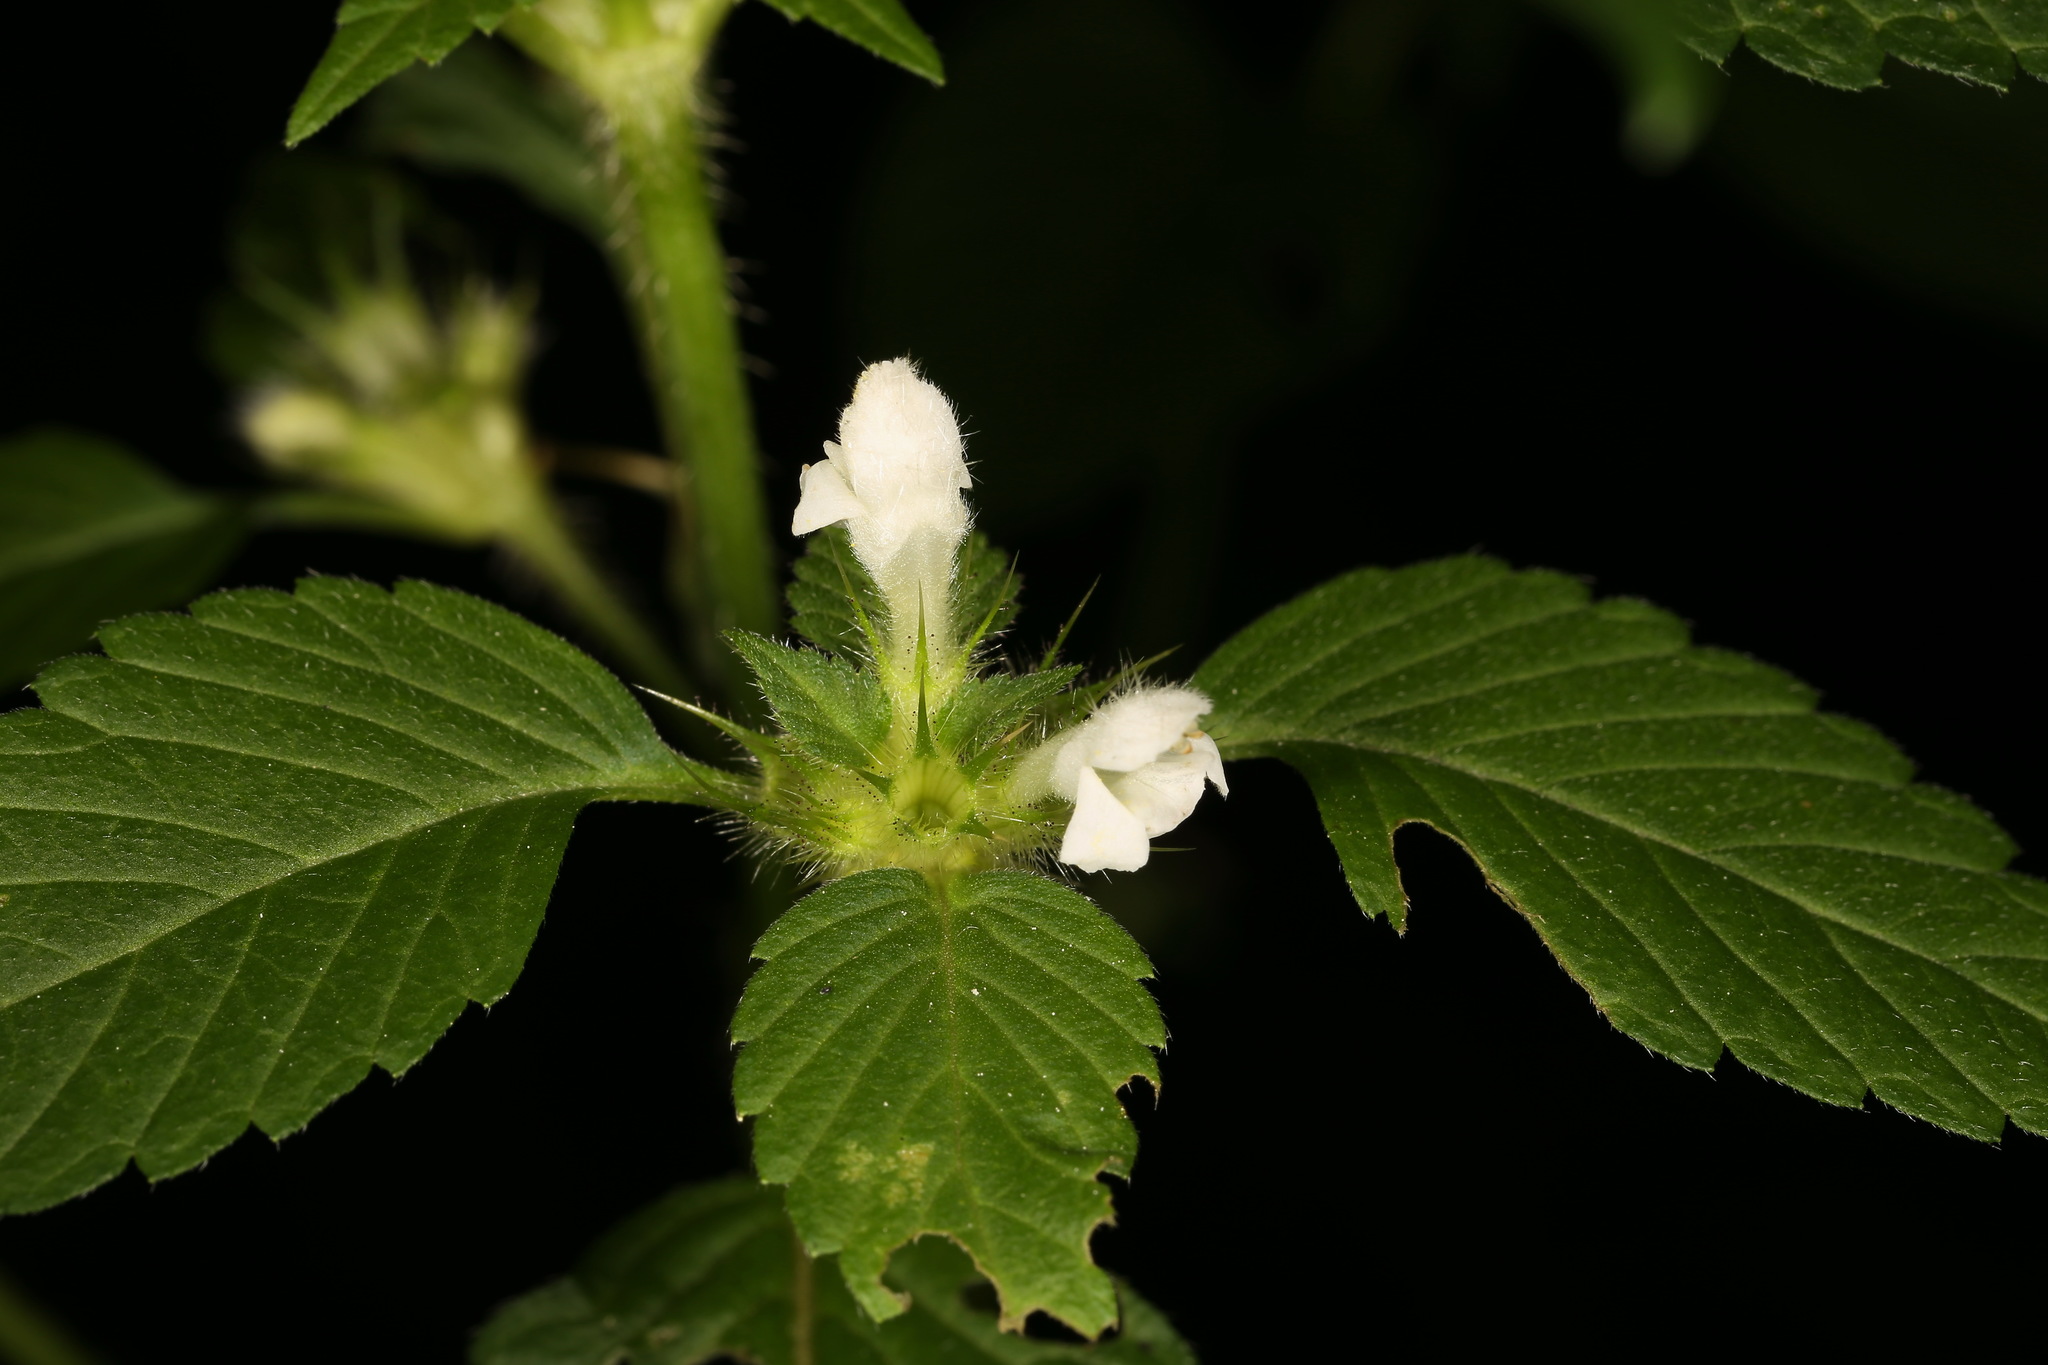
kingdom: Plantae
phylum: Tracheophyta
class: Magnoliopsida
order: Lamiales
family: Lamiaceae
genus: Galeopsis
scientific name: Galeopsis tetrahit
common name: Common hemp-nettle
